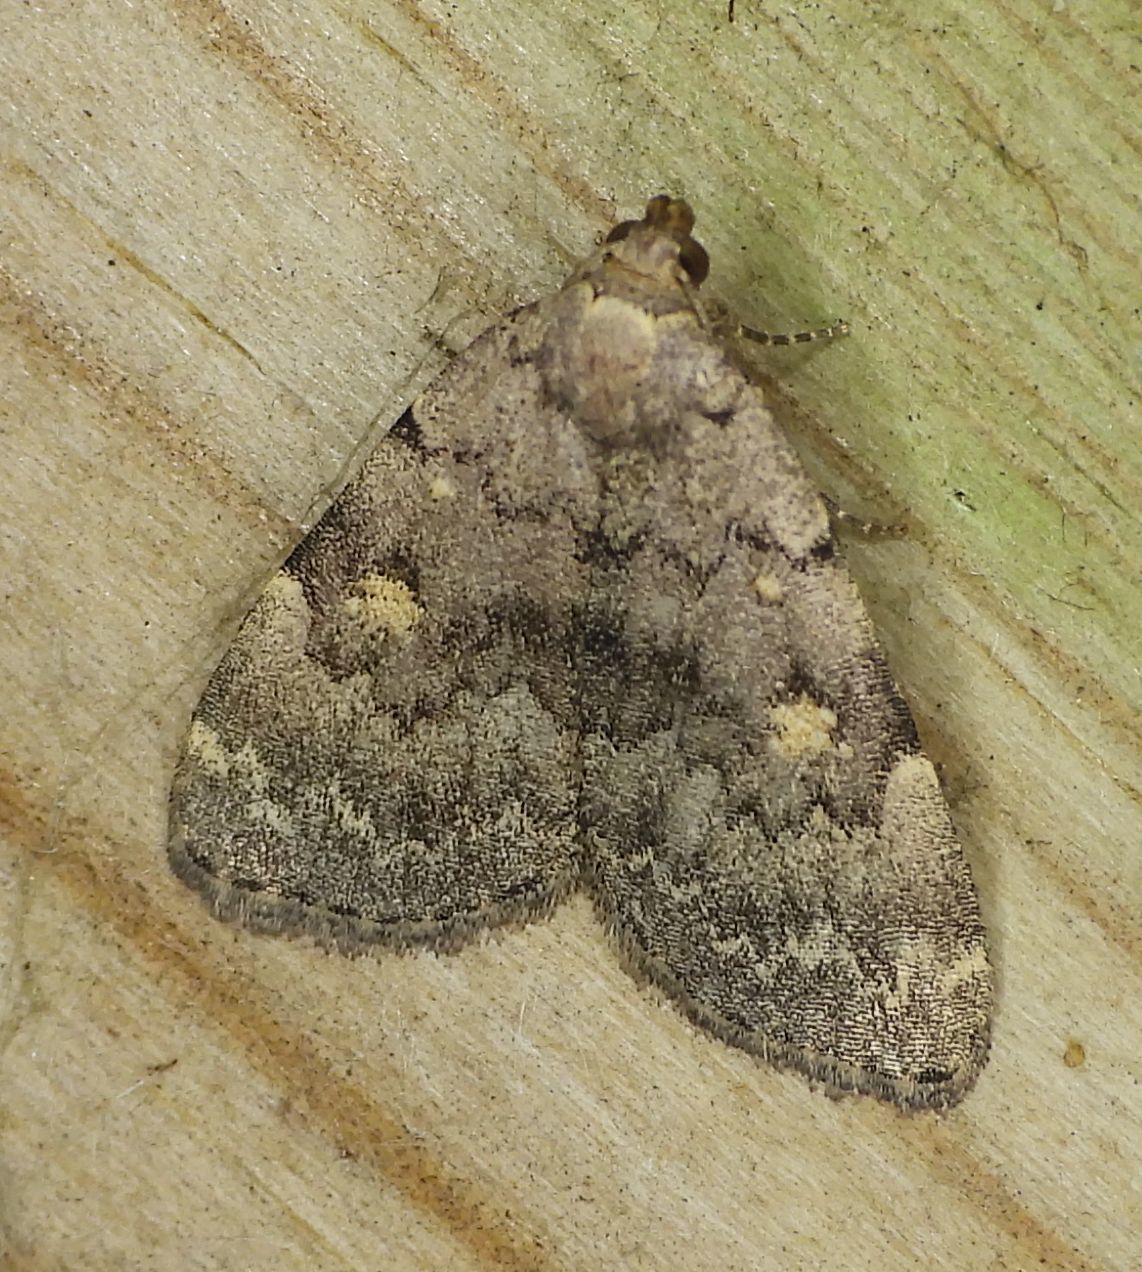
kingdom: Animalia
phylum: Arthropoda
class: Insecta
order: Lepidoptera
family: Erebidae
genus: Idia
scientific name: Idia aemula
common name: Common idia moth
